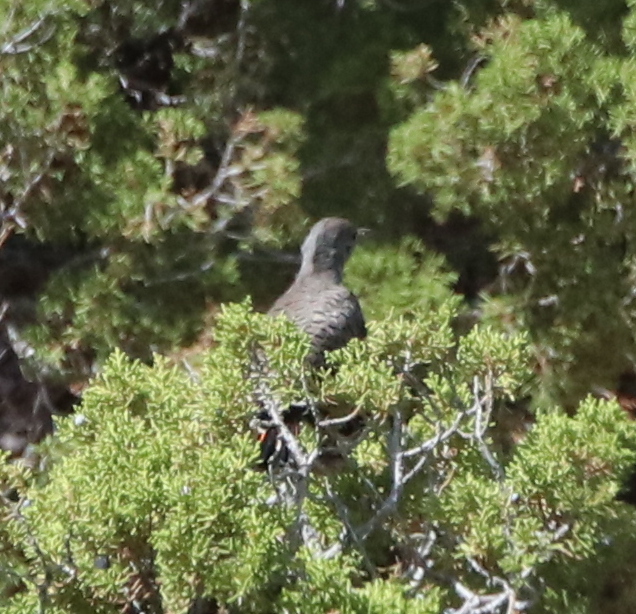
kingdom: Animalia
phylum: Chordata
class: Aves
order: Piciformes
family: Picidae
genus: Colaptes
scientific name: Colaptes auratus
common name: Northern flicker
